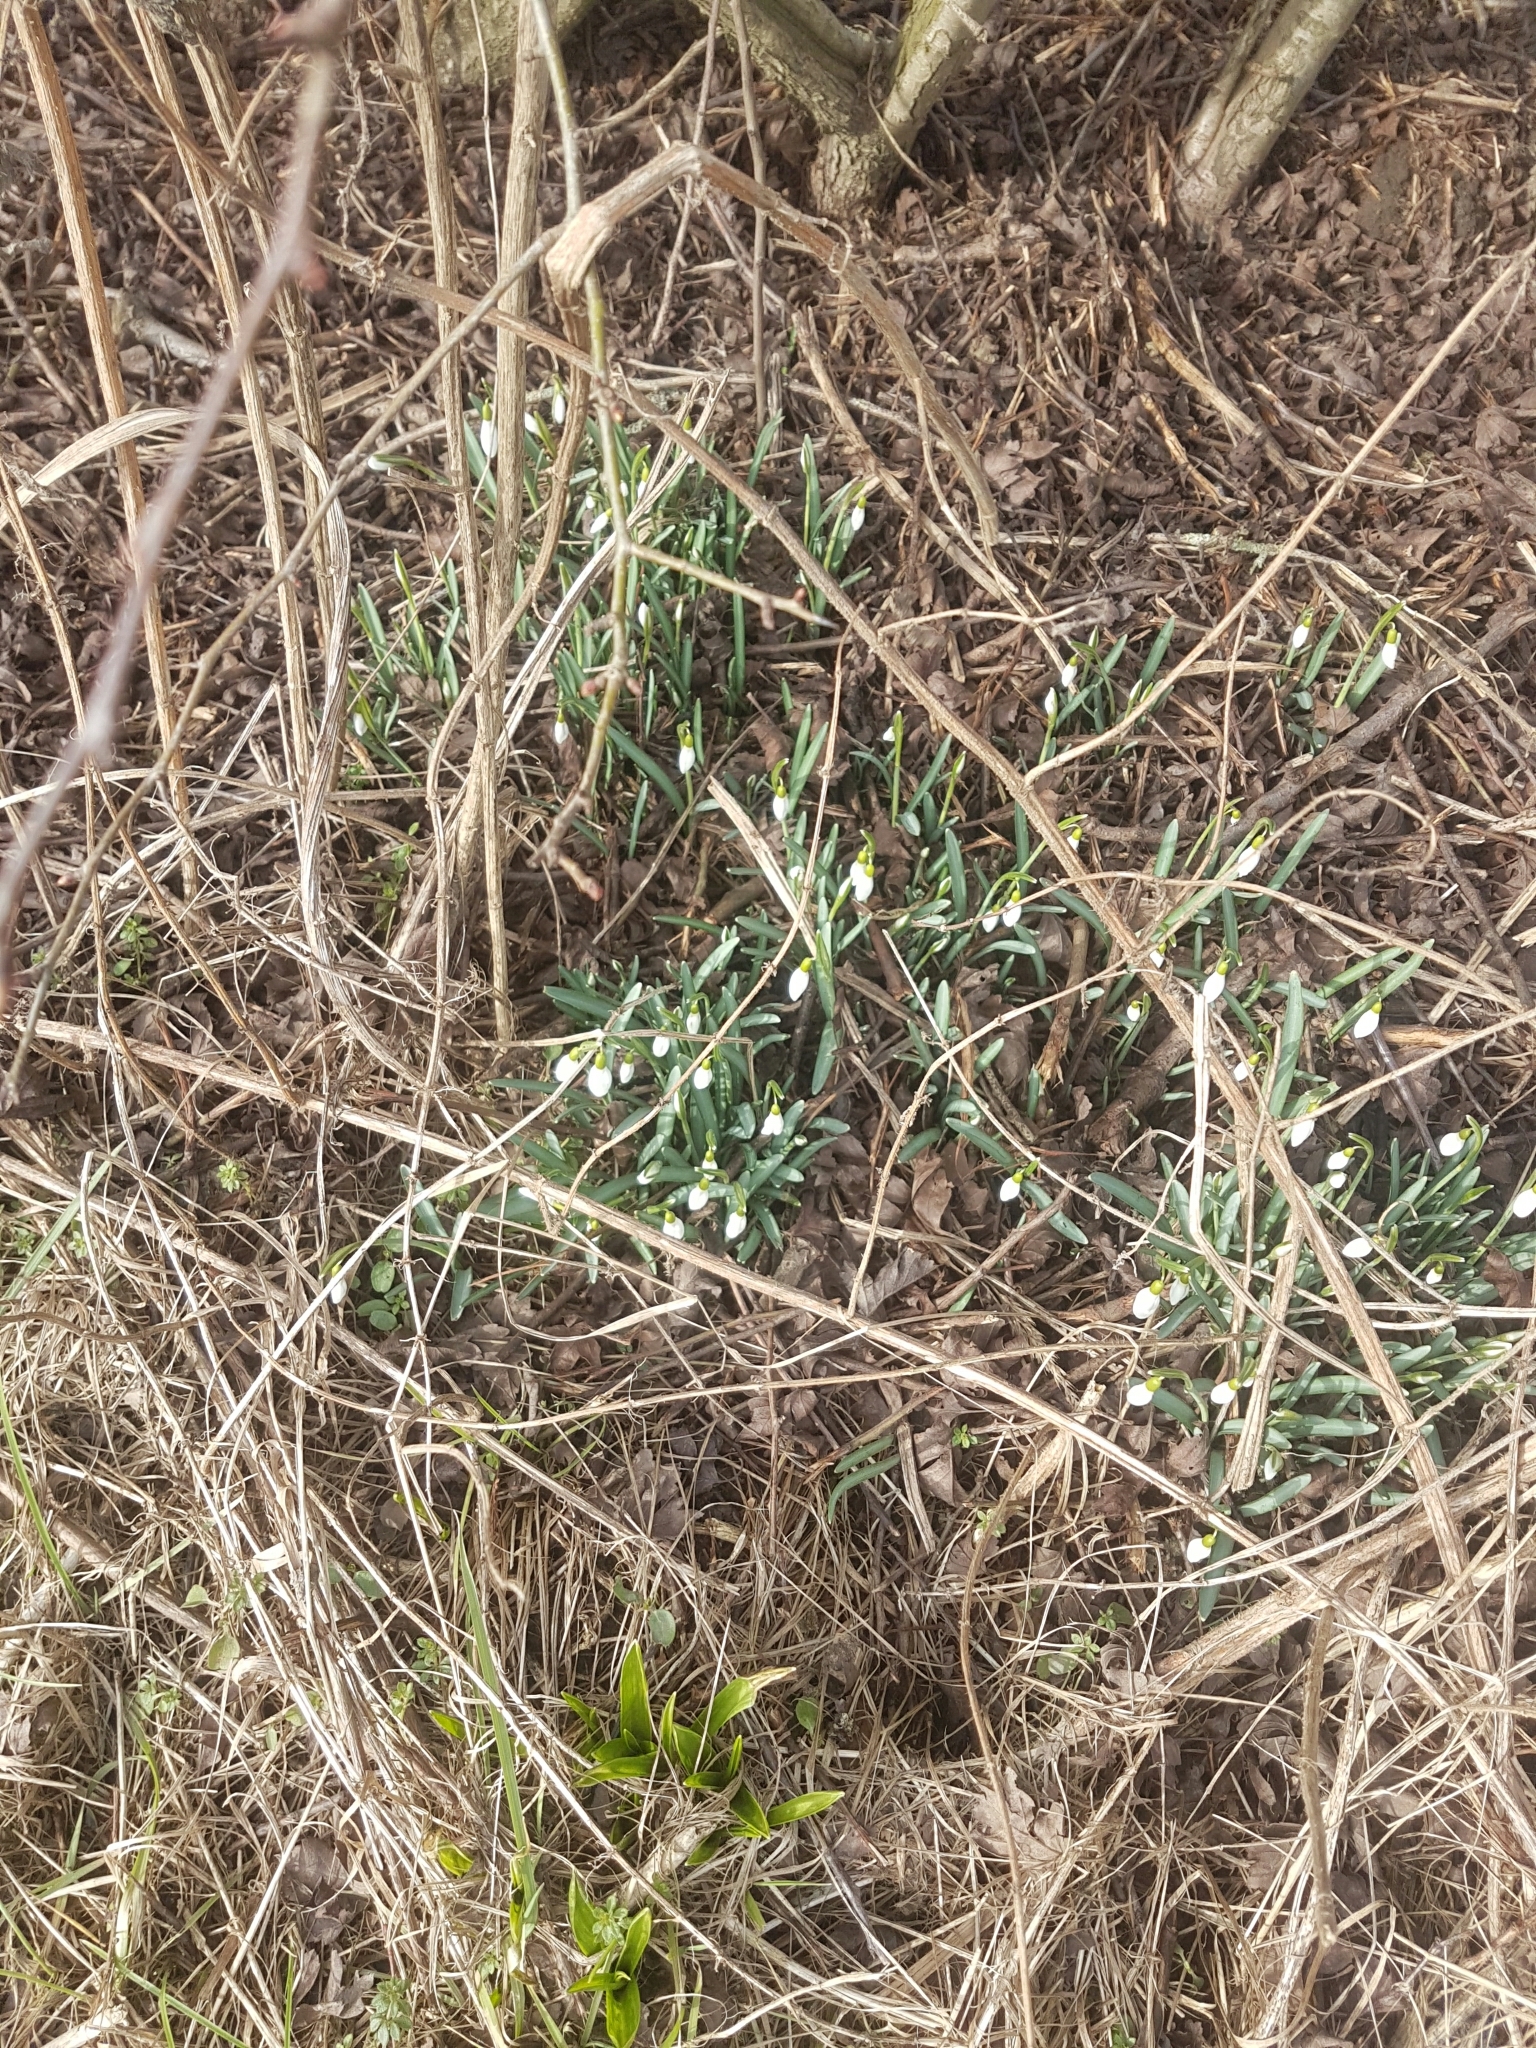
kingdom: Plantae
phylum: Tracheophyta
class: Liliopsida
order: Asparagales
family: Amaryllidaceae
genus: Galanthus
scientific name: Galanthus nivalis
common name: Snowdrop
